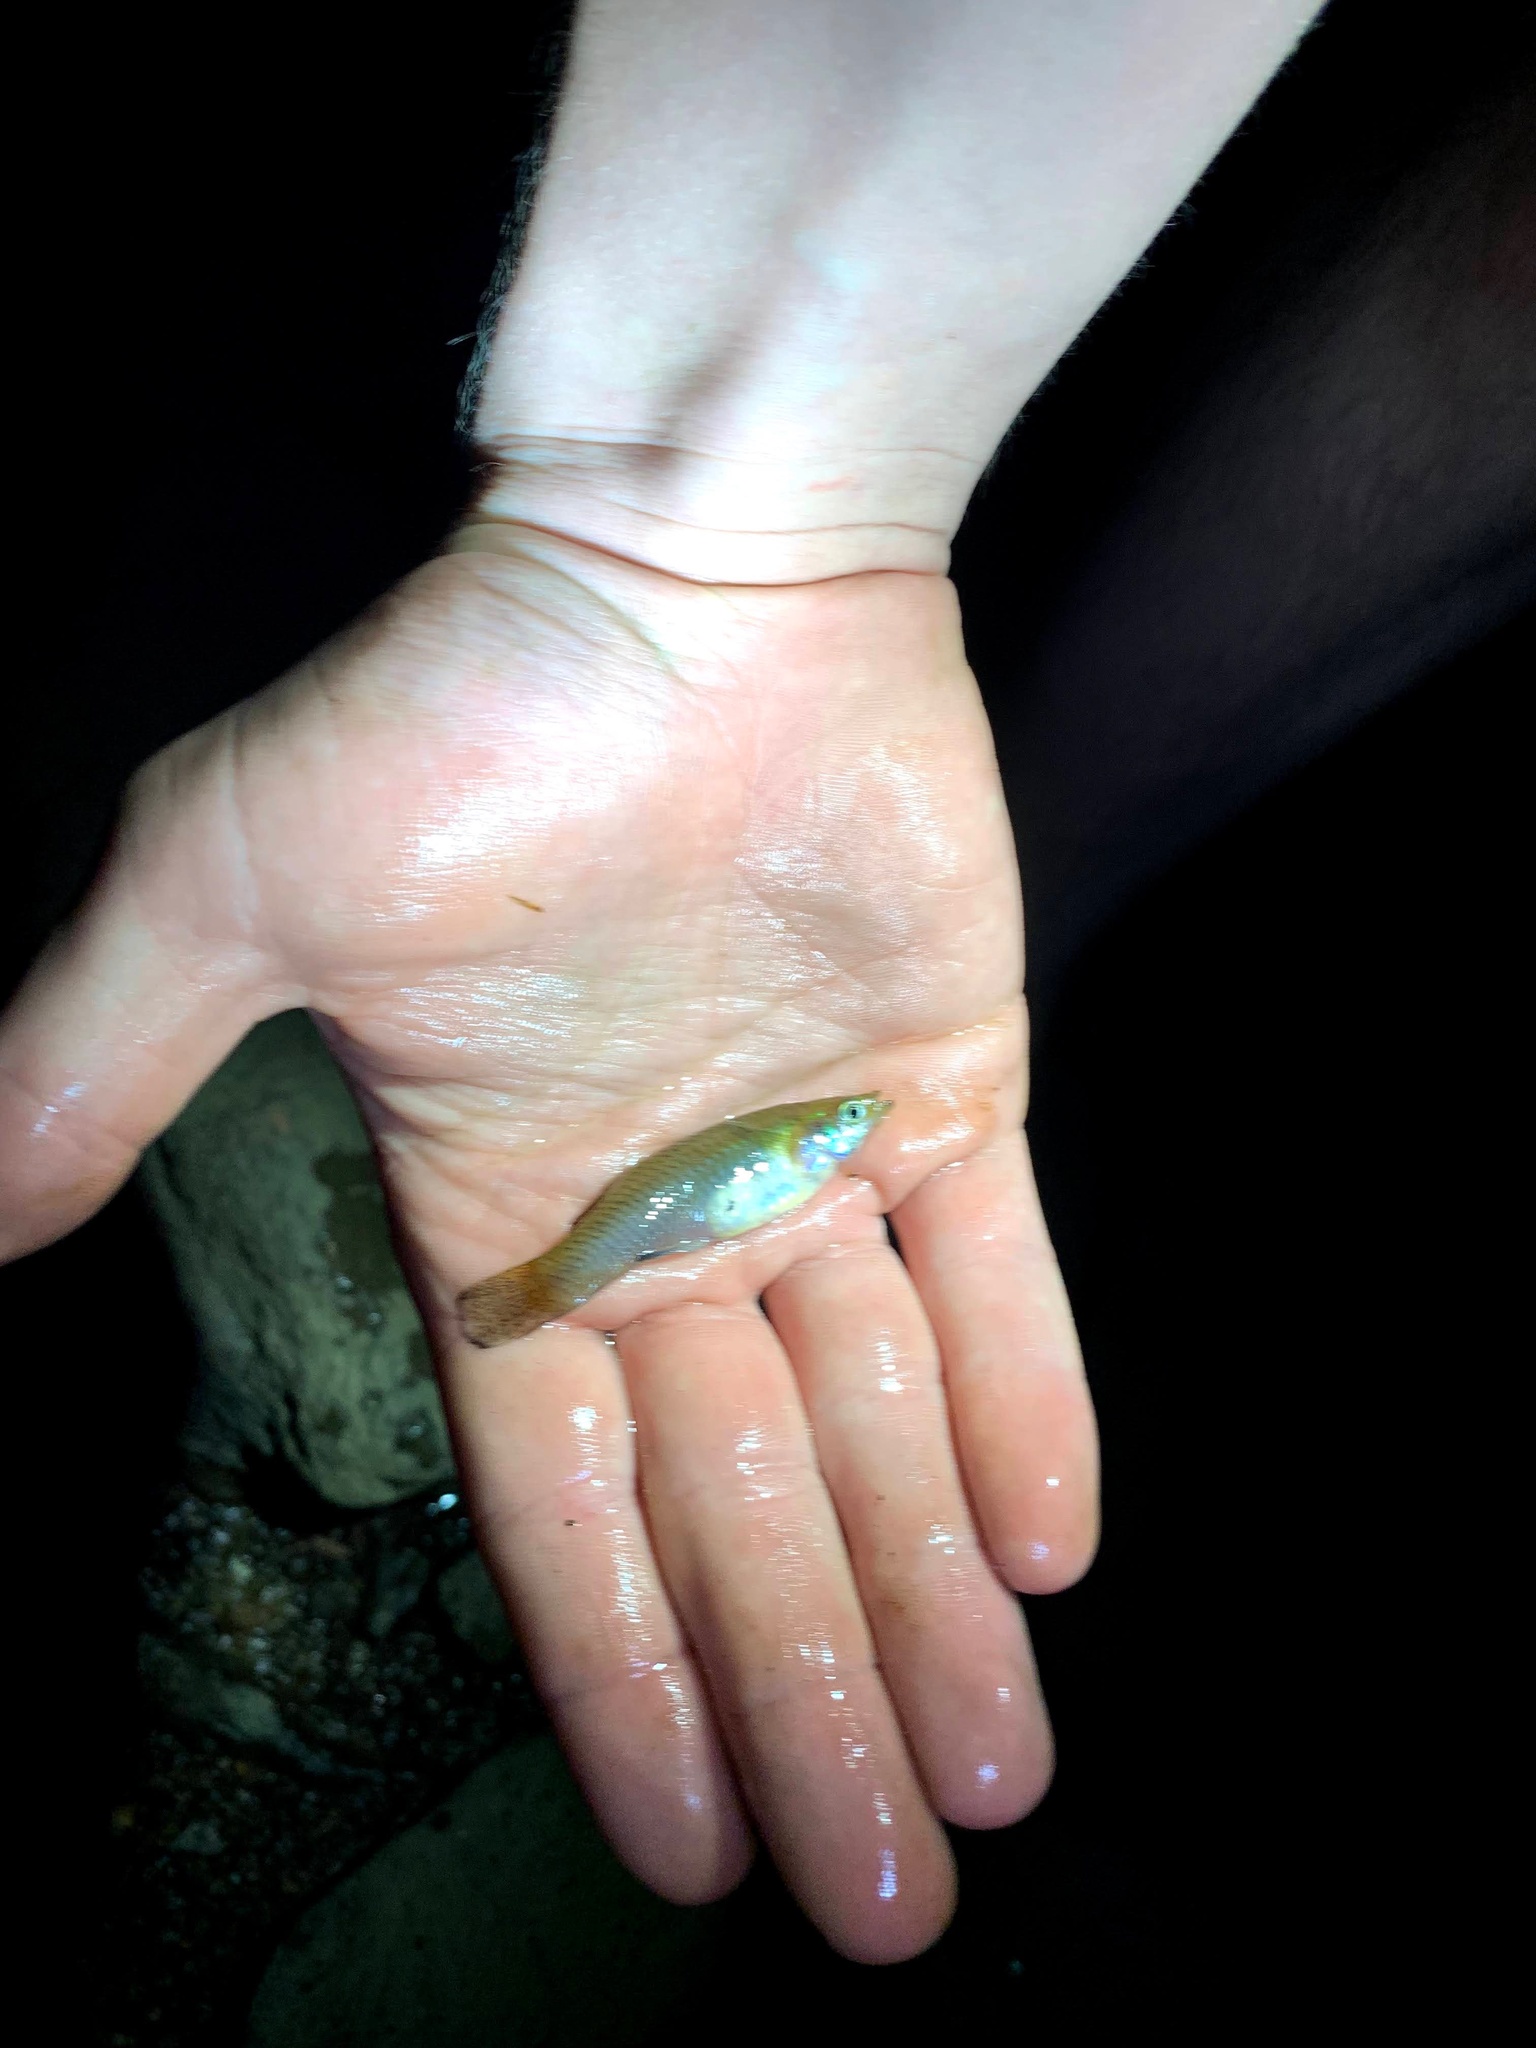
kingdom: Animalia
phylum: Chordata
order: Cyprinodontiformes
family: Poeciliidae
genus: Gambusia
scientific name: Gambusia holbrooki
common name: Eastern mosquitofish
